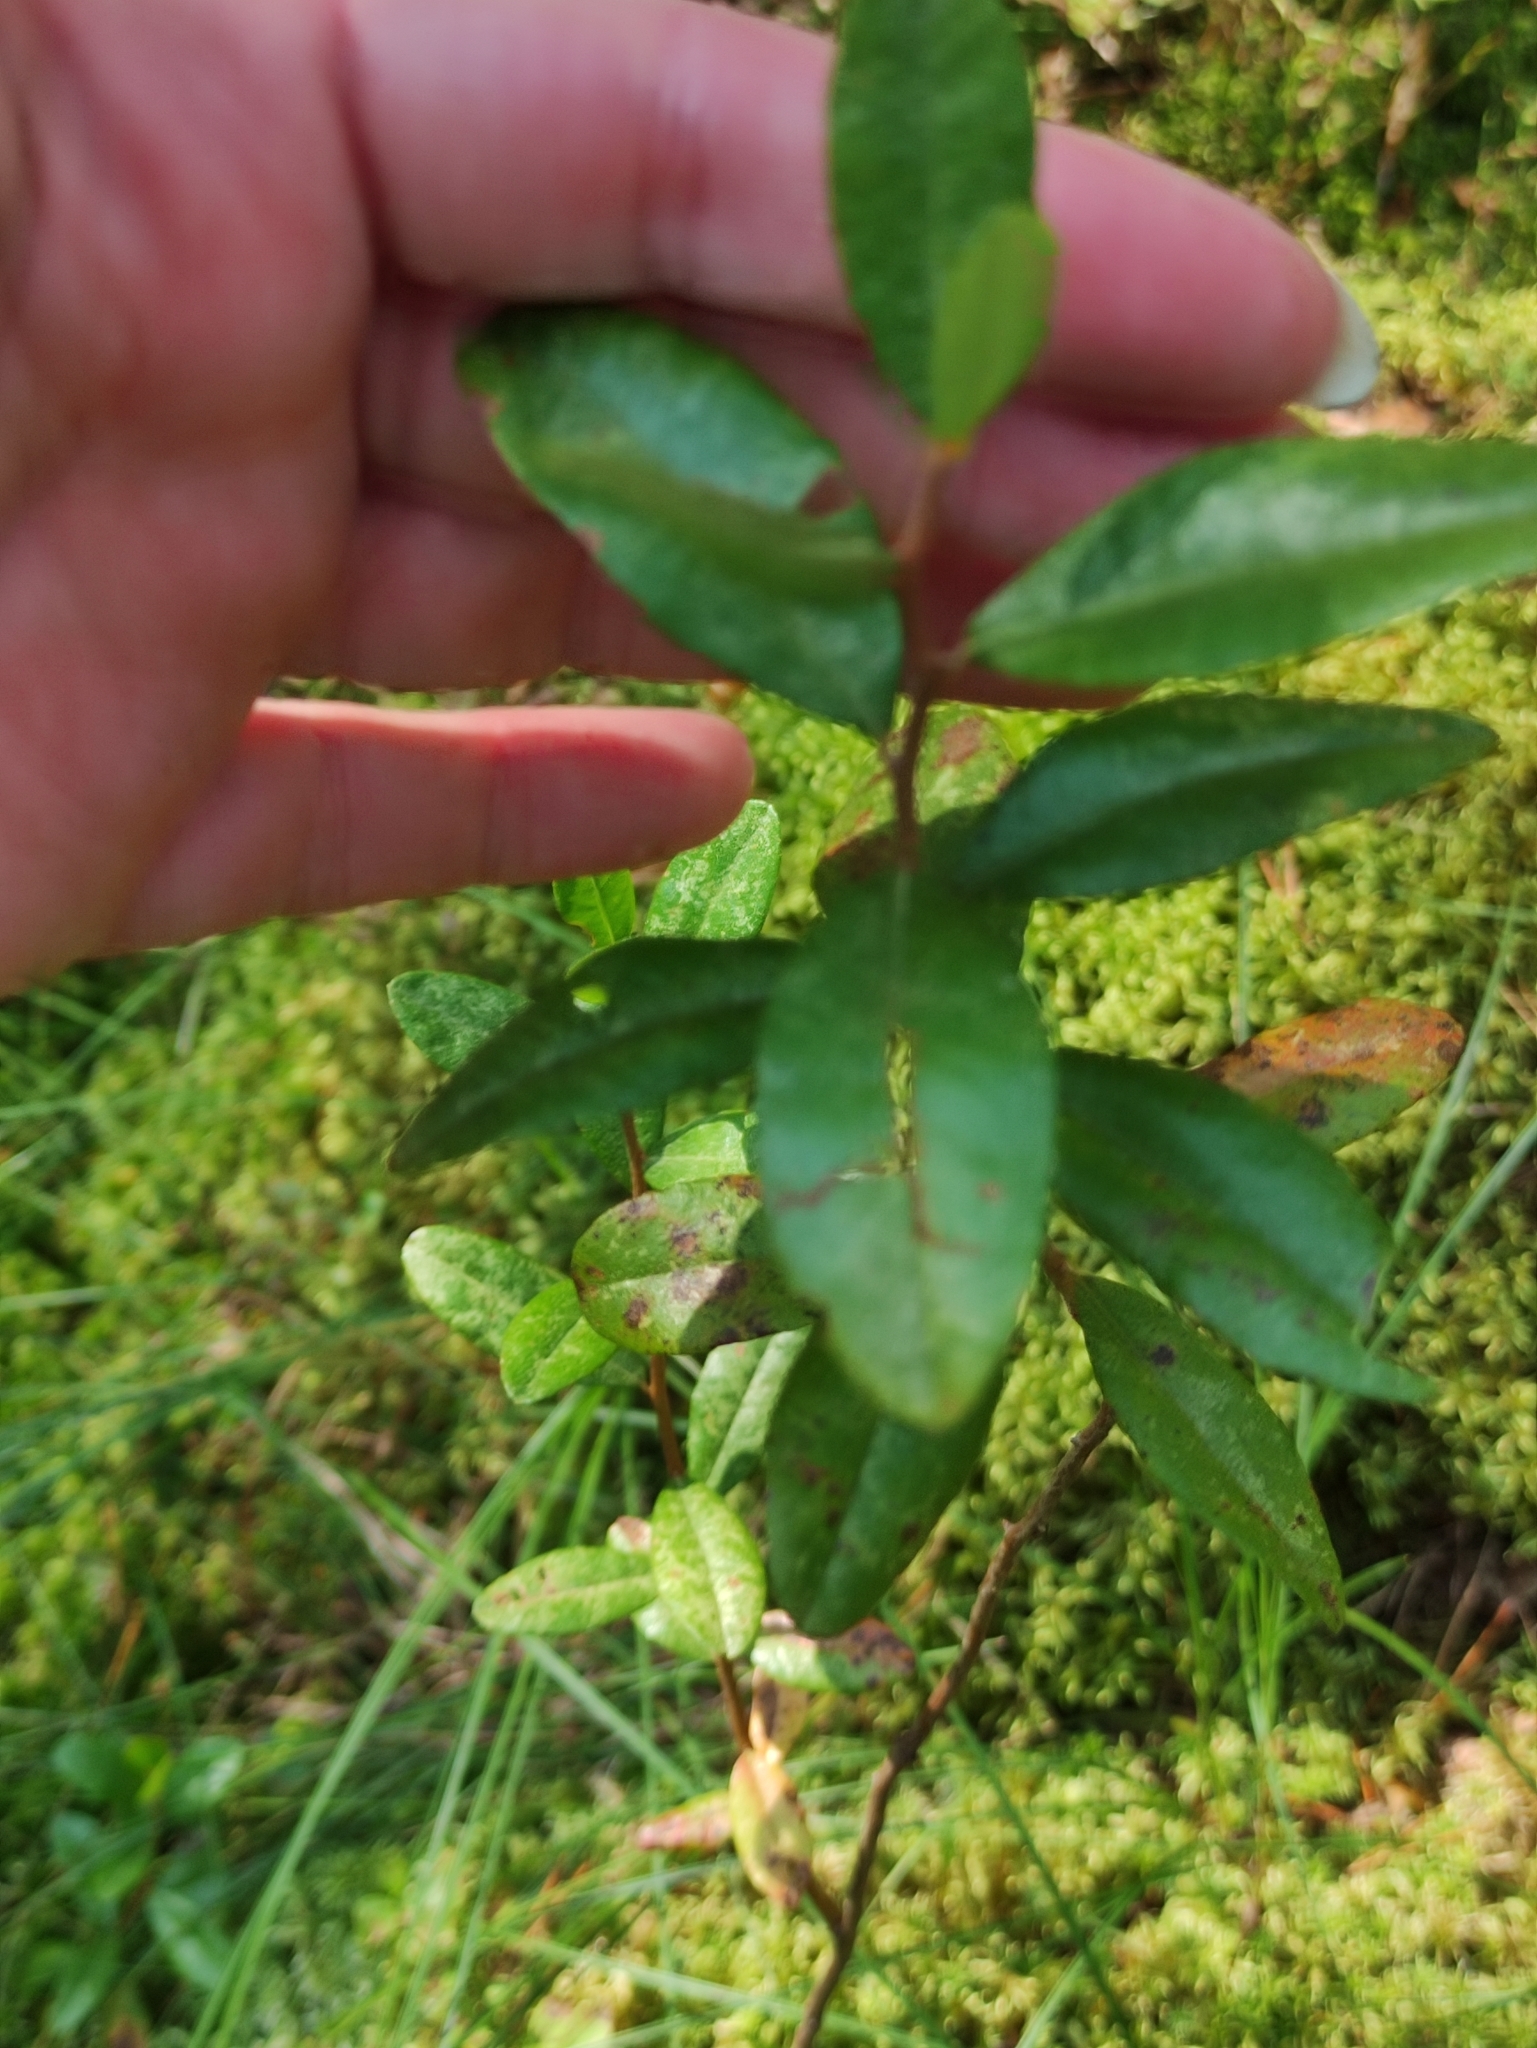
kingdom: Plantae
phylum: Tracheophyta
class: Magnoliopsida
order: Ericales
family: Ericaceae
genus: Chamaedaphne
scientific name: Chamaedaphne calyculata
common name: Leatherleaf
